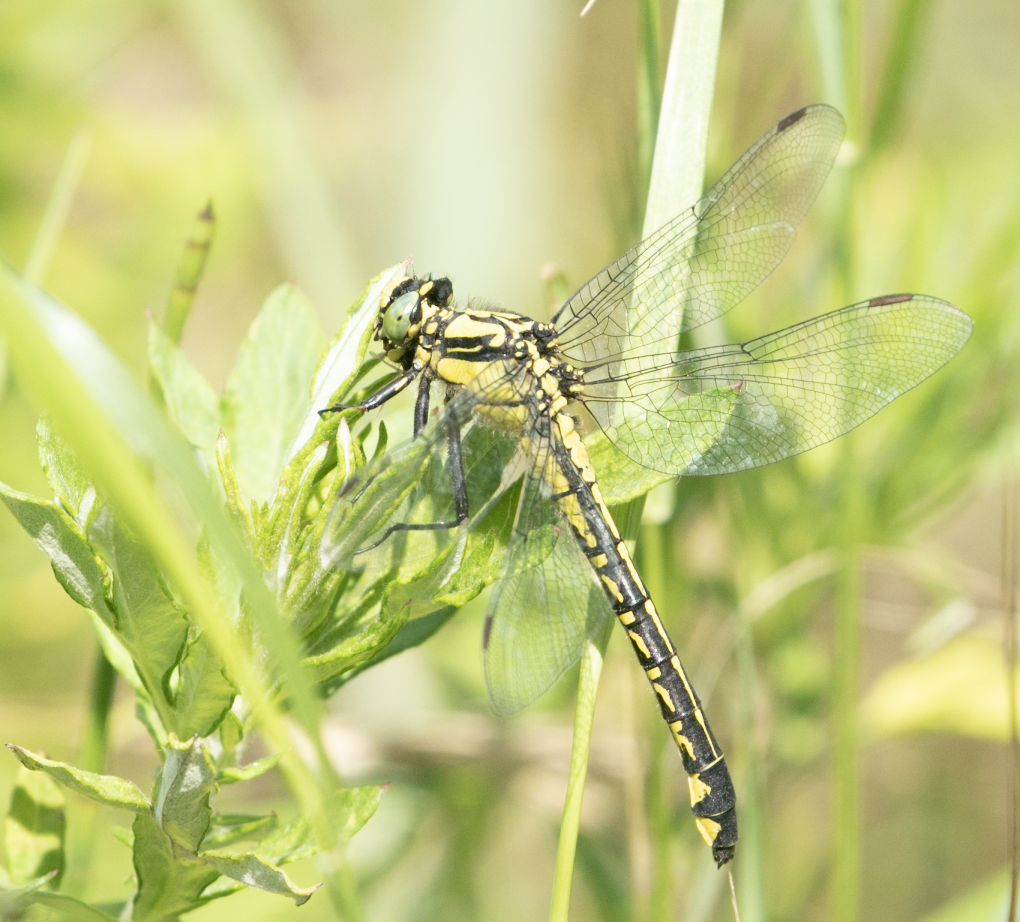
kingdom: Animalia
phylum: Arthropoda
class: Insecta
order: Odonata
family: Gomphidae
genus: Gomphus
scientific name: Gomphus vulgatissimus
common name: Club-tailed dragonfly
